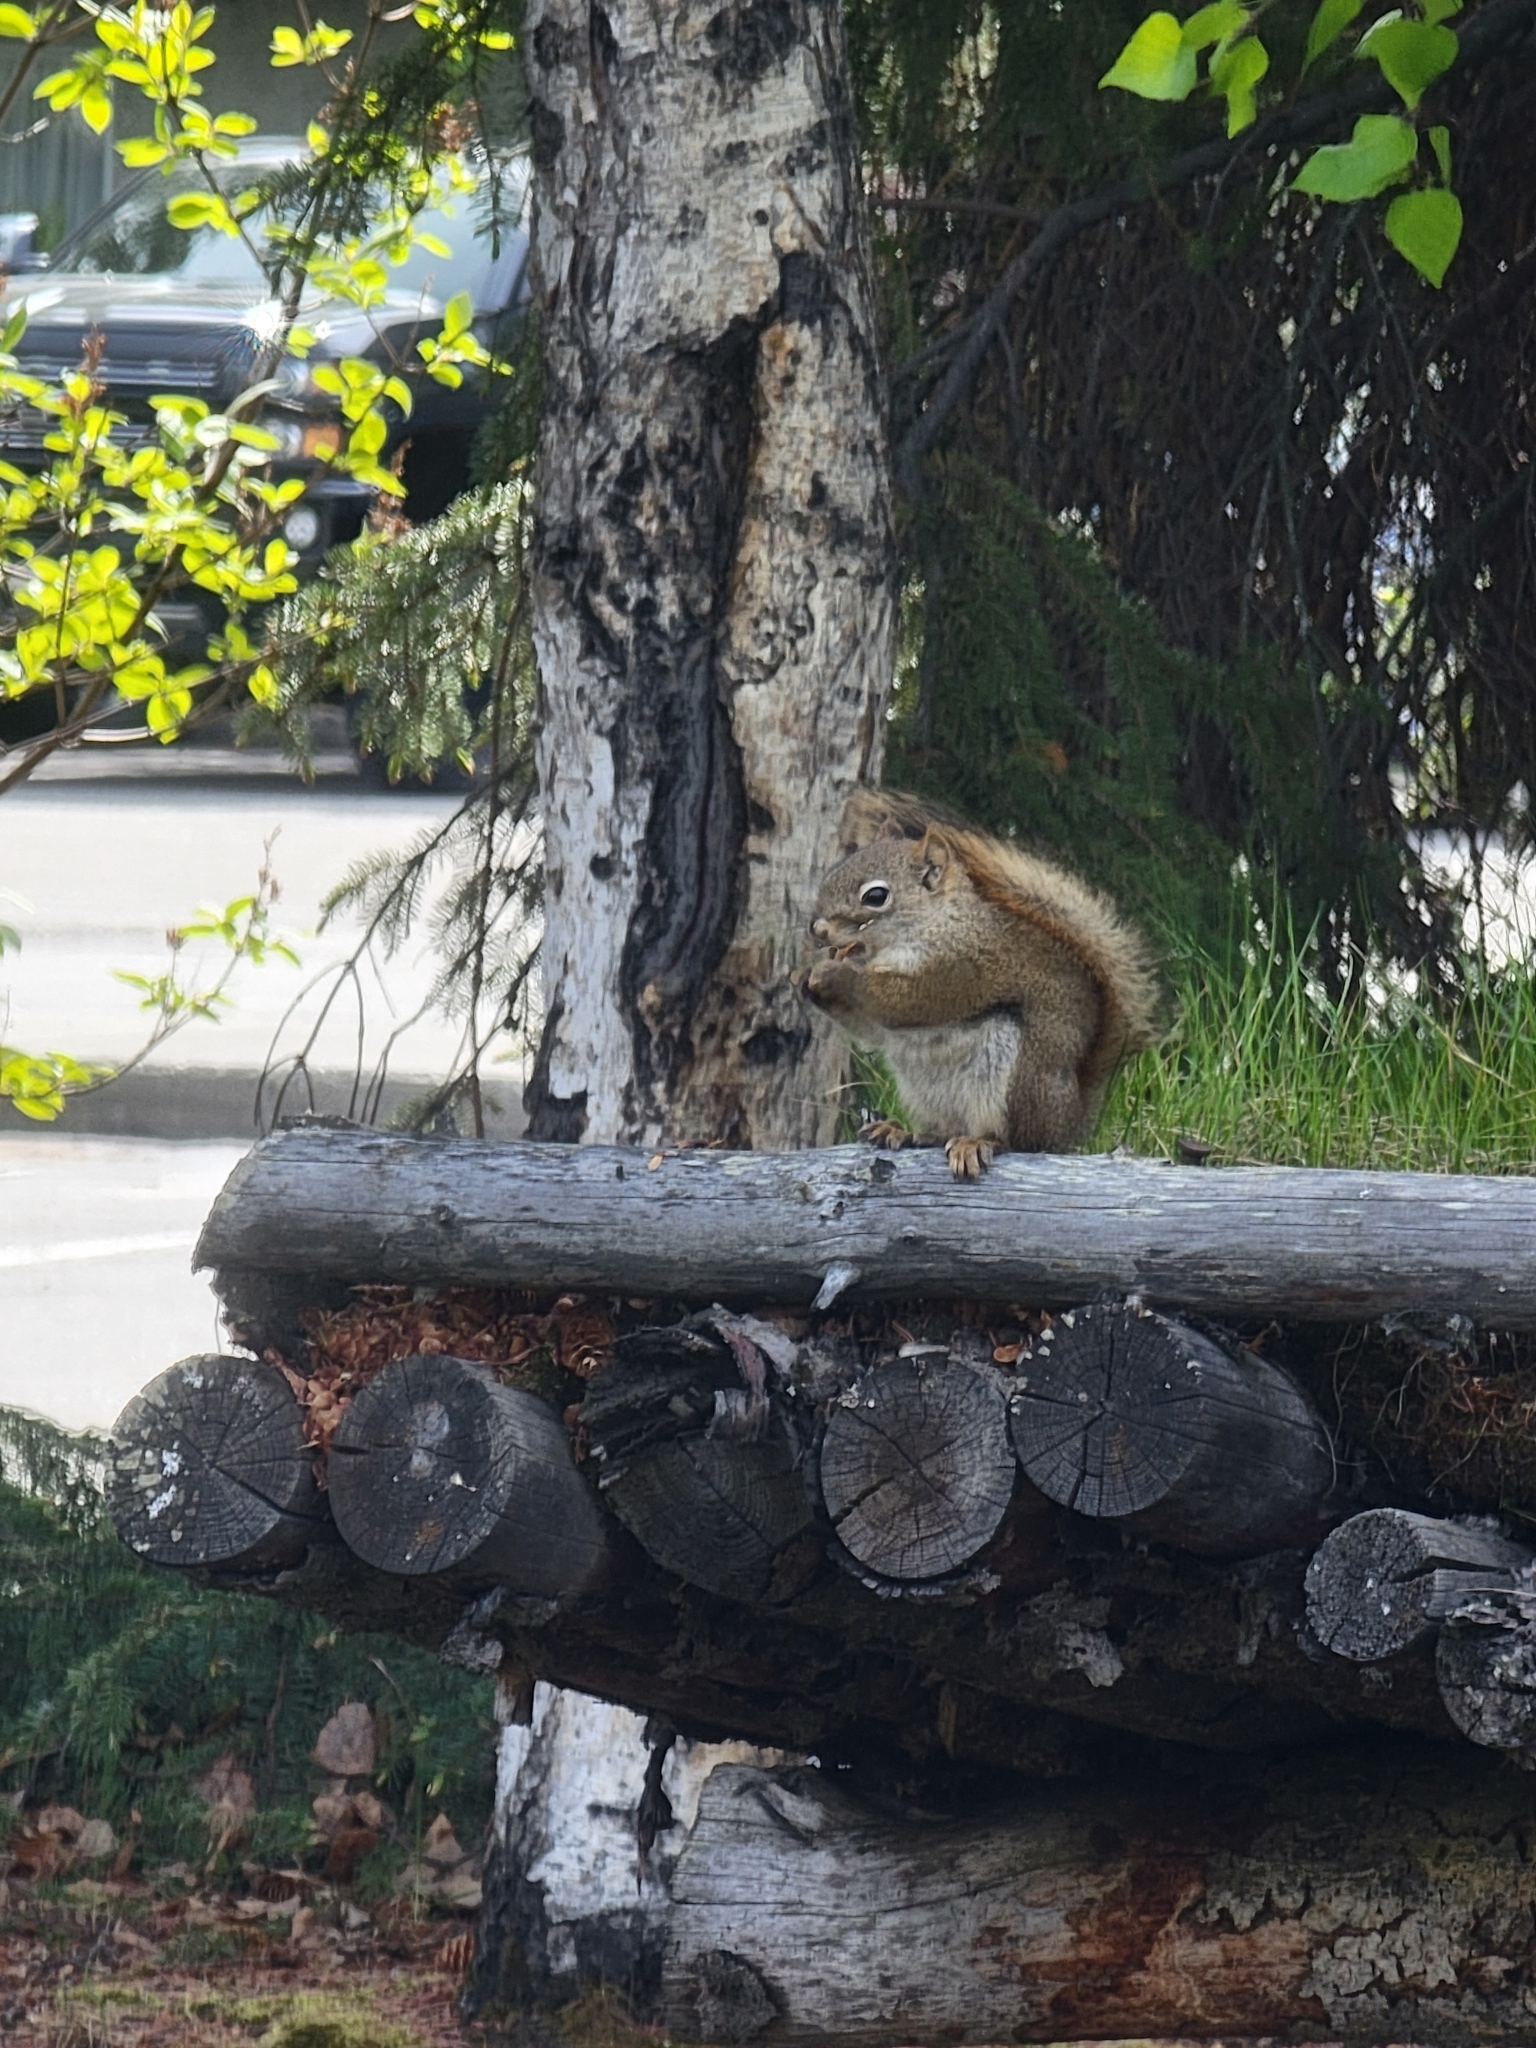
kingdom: Animalia
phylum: Chordata
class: Mammalia
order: Rodentia
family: Sciuridae
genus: Tamiasciurus
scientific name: Tamiasciurus hudsonicus
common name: Red squirrel
